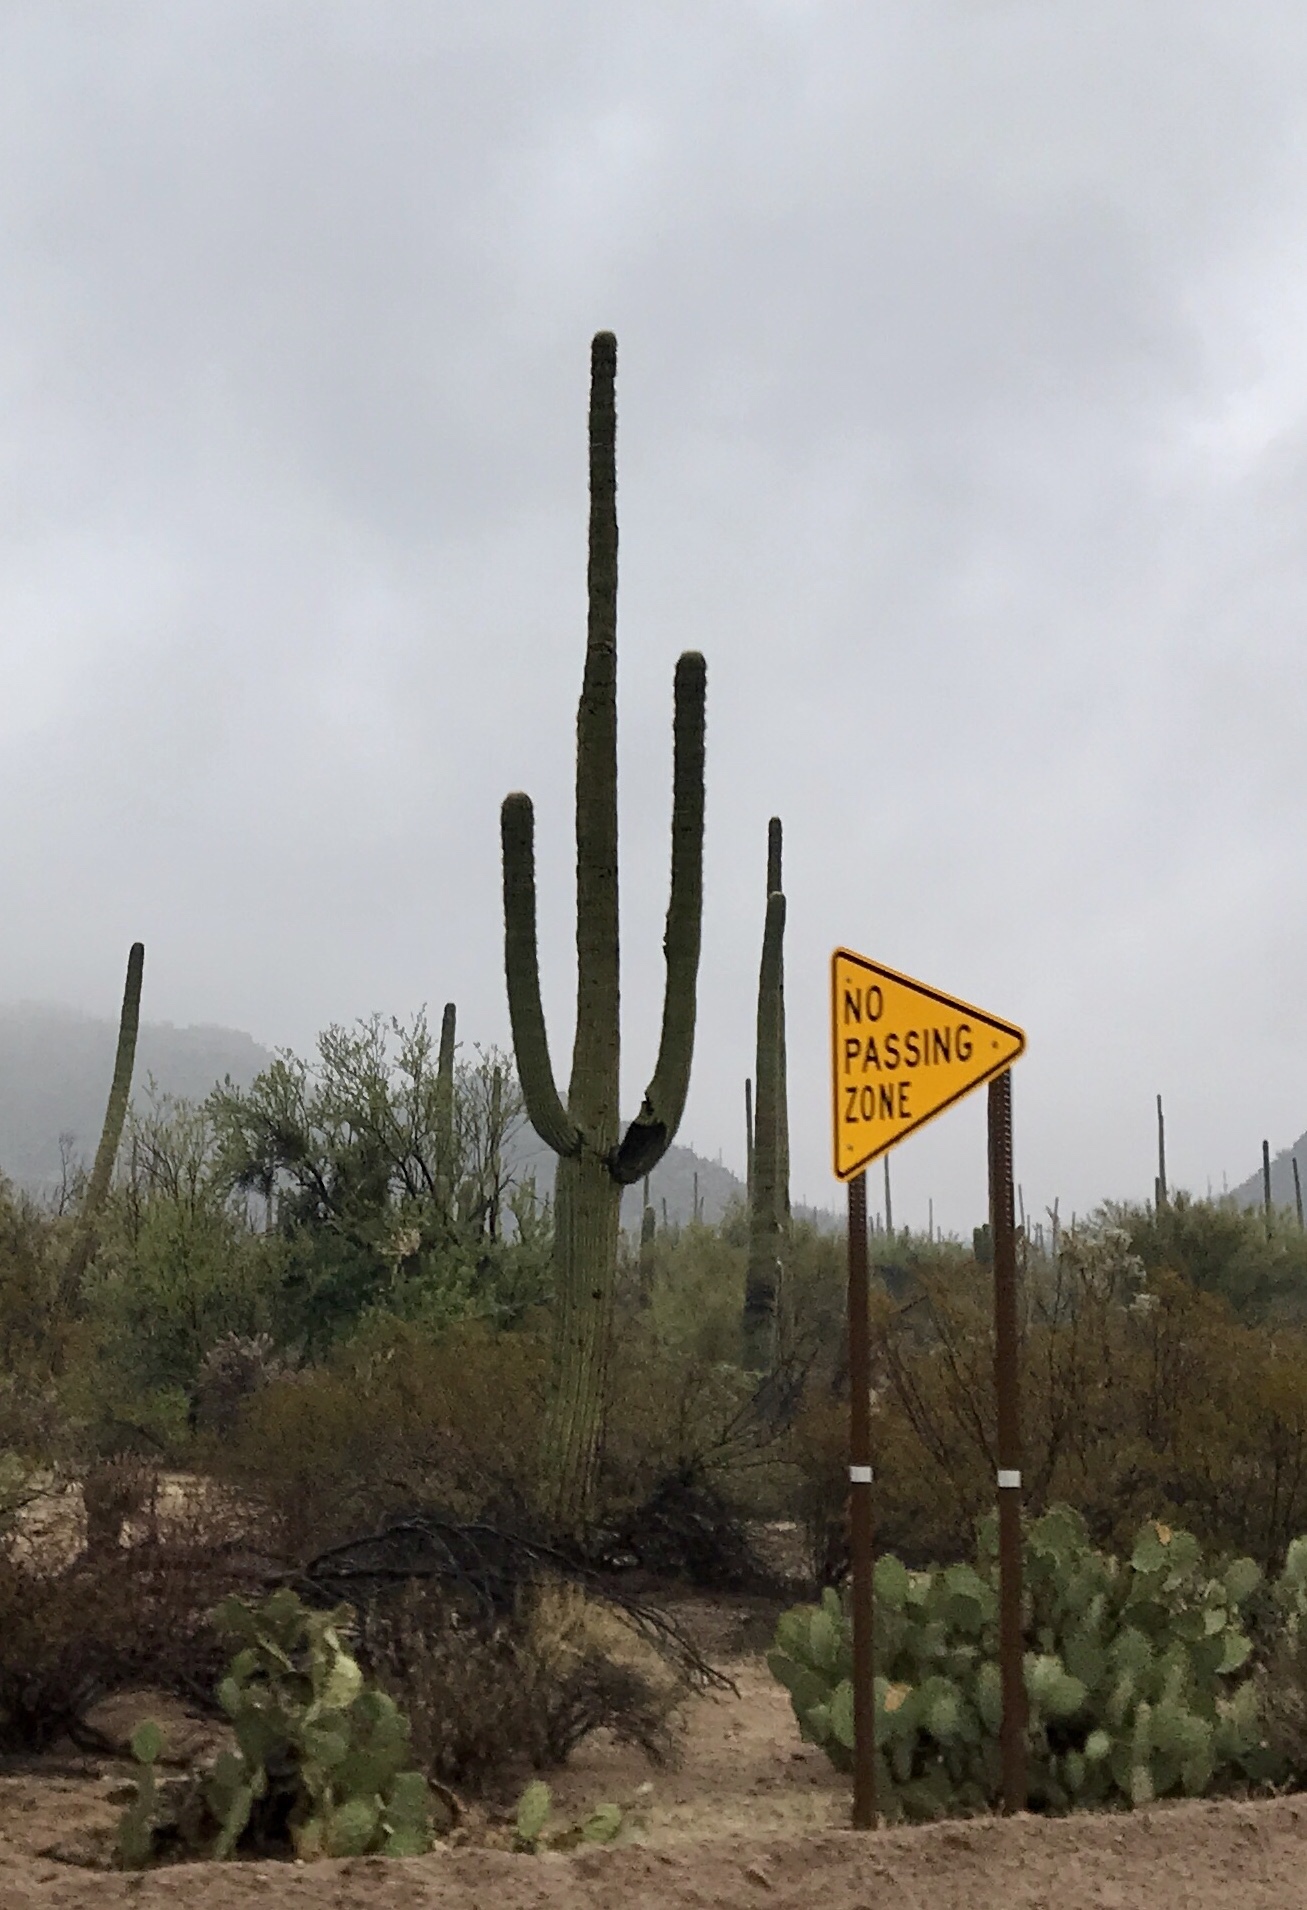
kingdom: Plantae
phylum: Tracheophyta
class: Magnoliopsida
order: Caryophyllales
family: Cactaceae
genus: Carnegiea
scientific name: Carnegiea gigantea
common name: Saguaro
